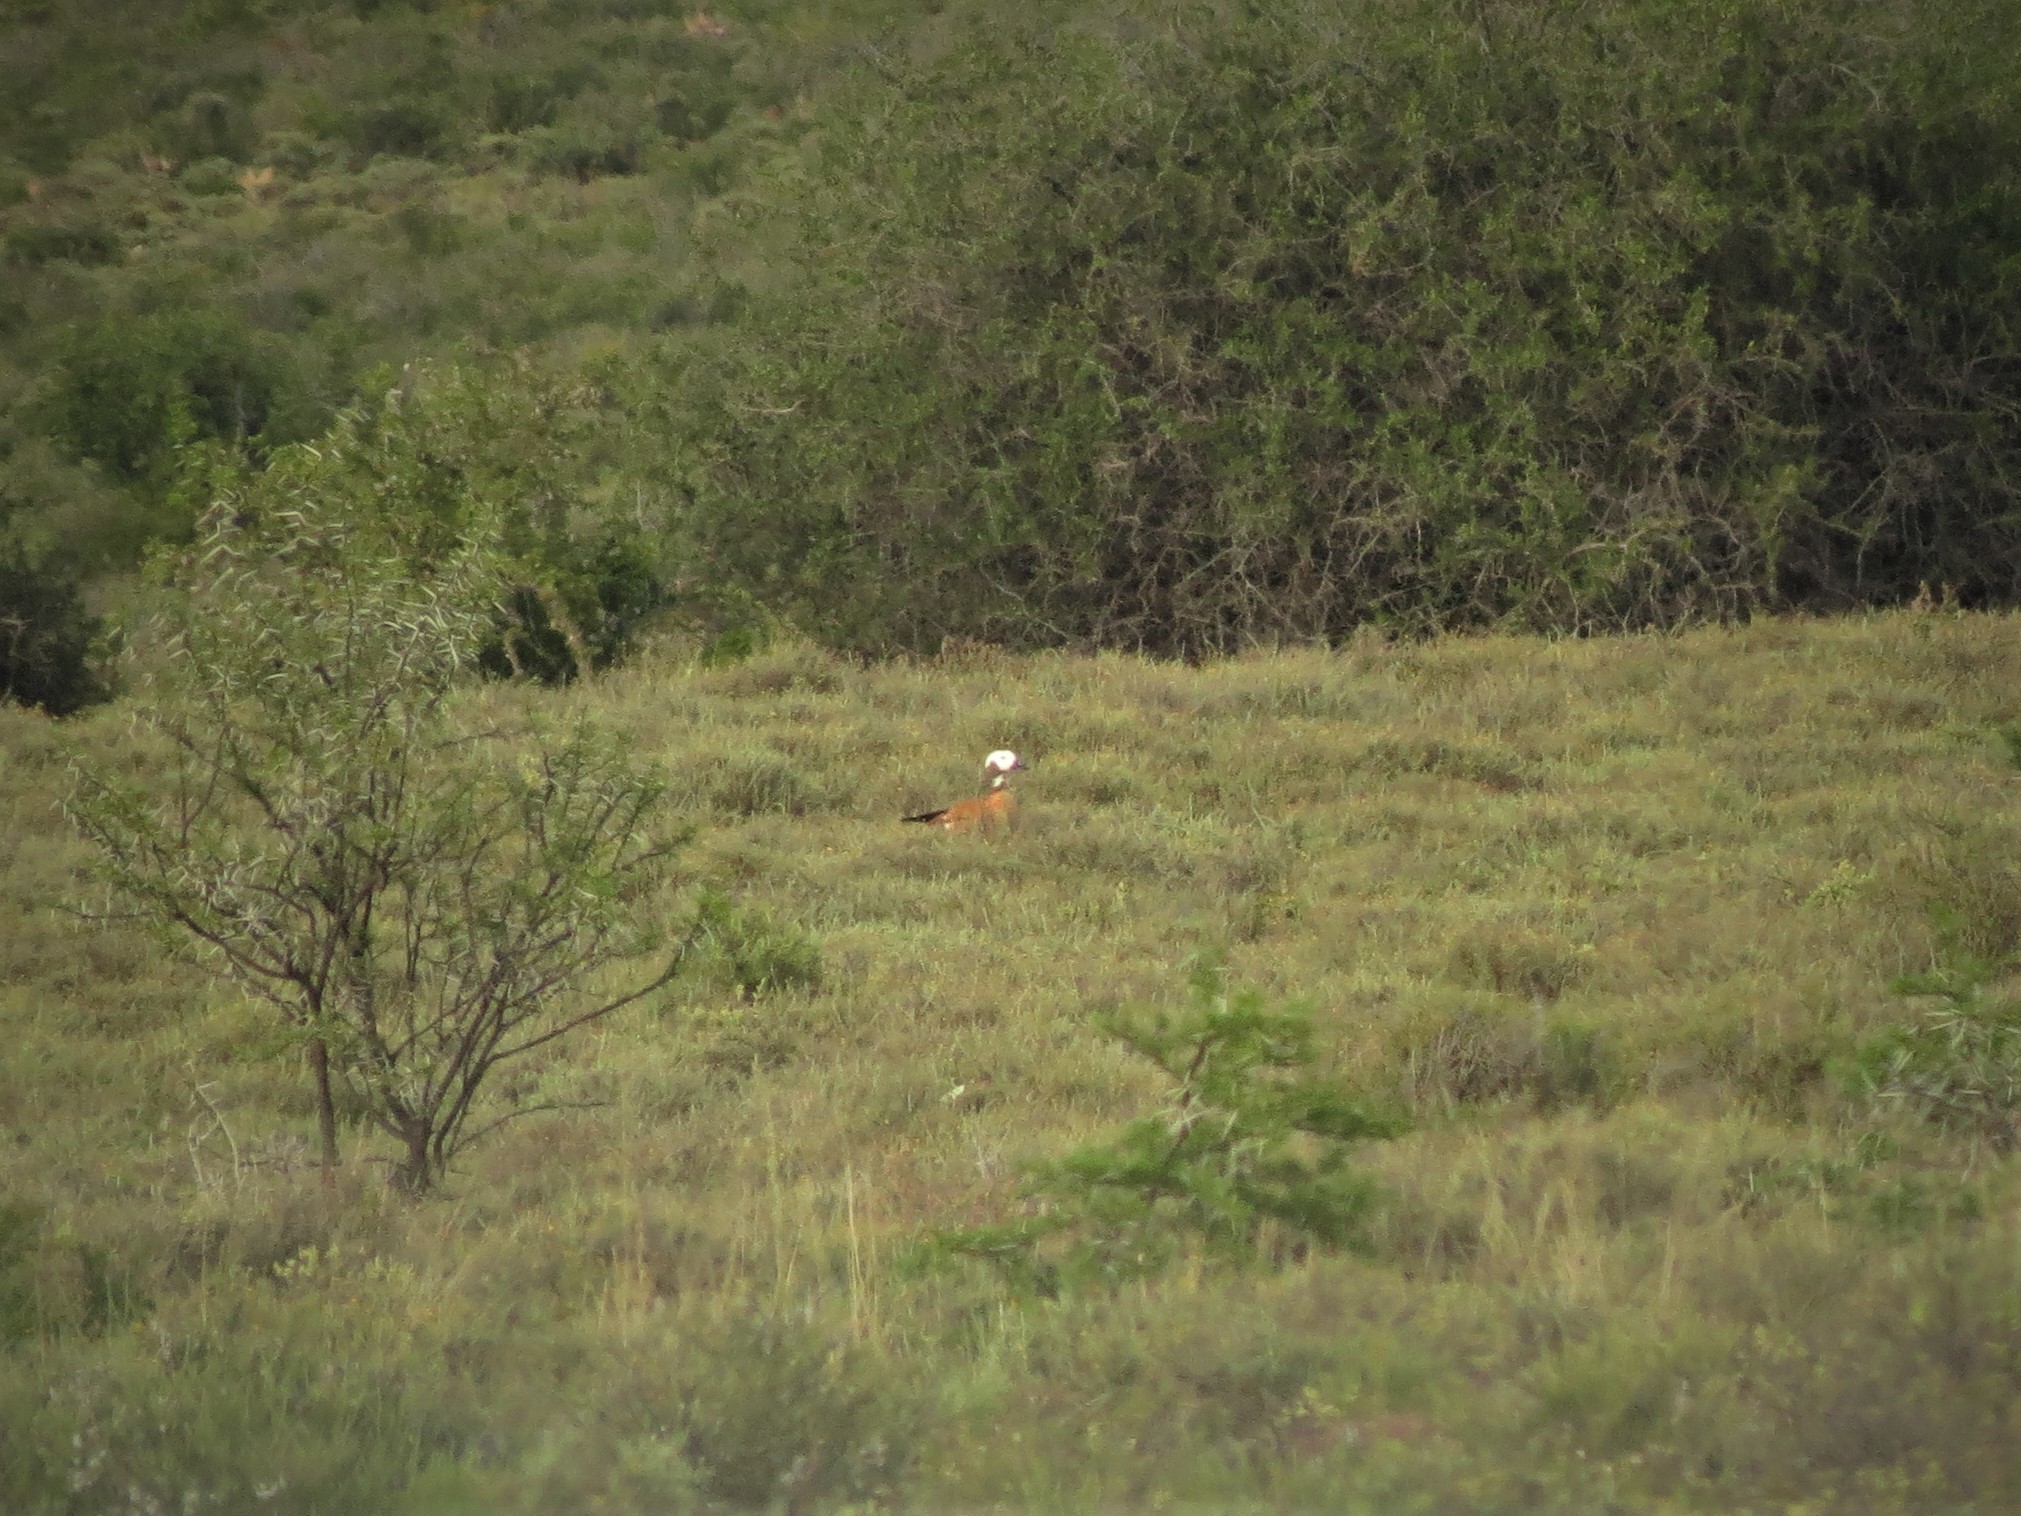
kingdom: Animalia
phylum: Chordata
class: Aves
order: Anseriformes
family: Anatidae
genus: Tadorna
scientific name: Tadorna cana
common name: South african shelduck
